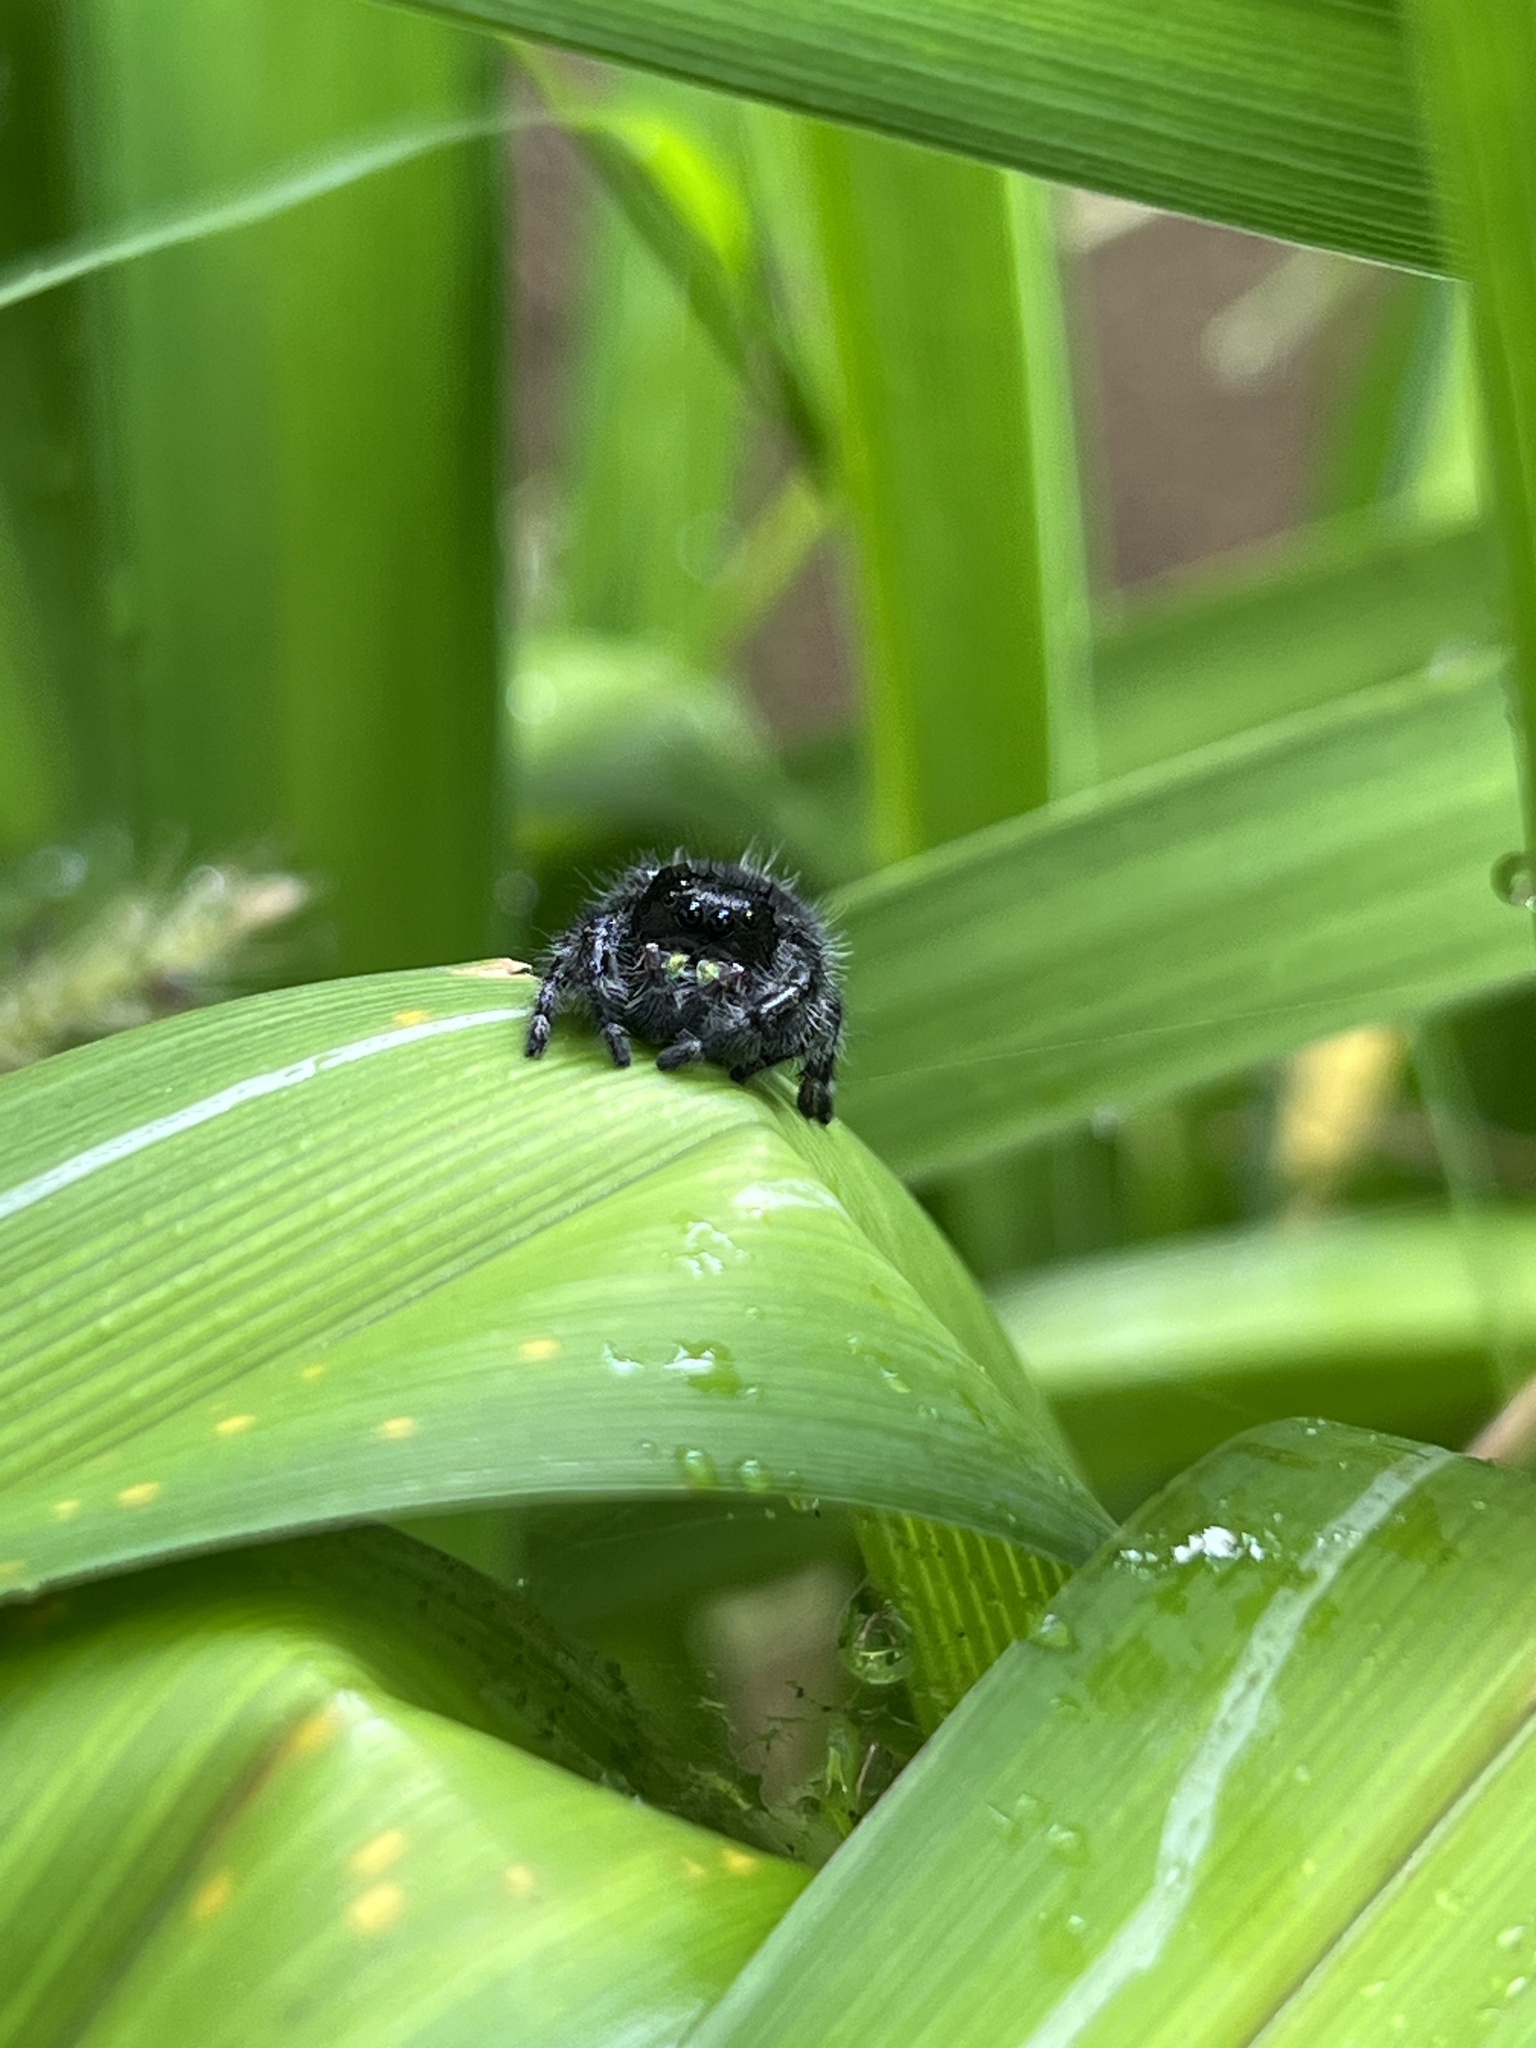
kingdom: Animalia
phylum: Arthropoda
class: Arachnida
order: Araneae
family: Salticidae
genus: Phidippus
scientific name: Phidippus audax
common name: Bold jumper
